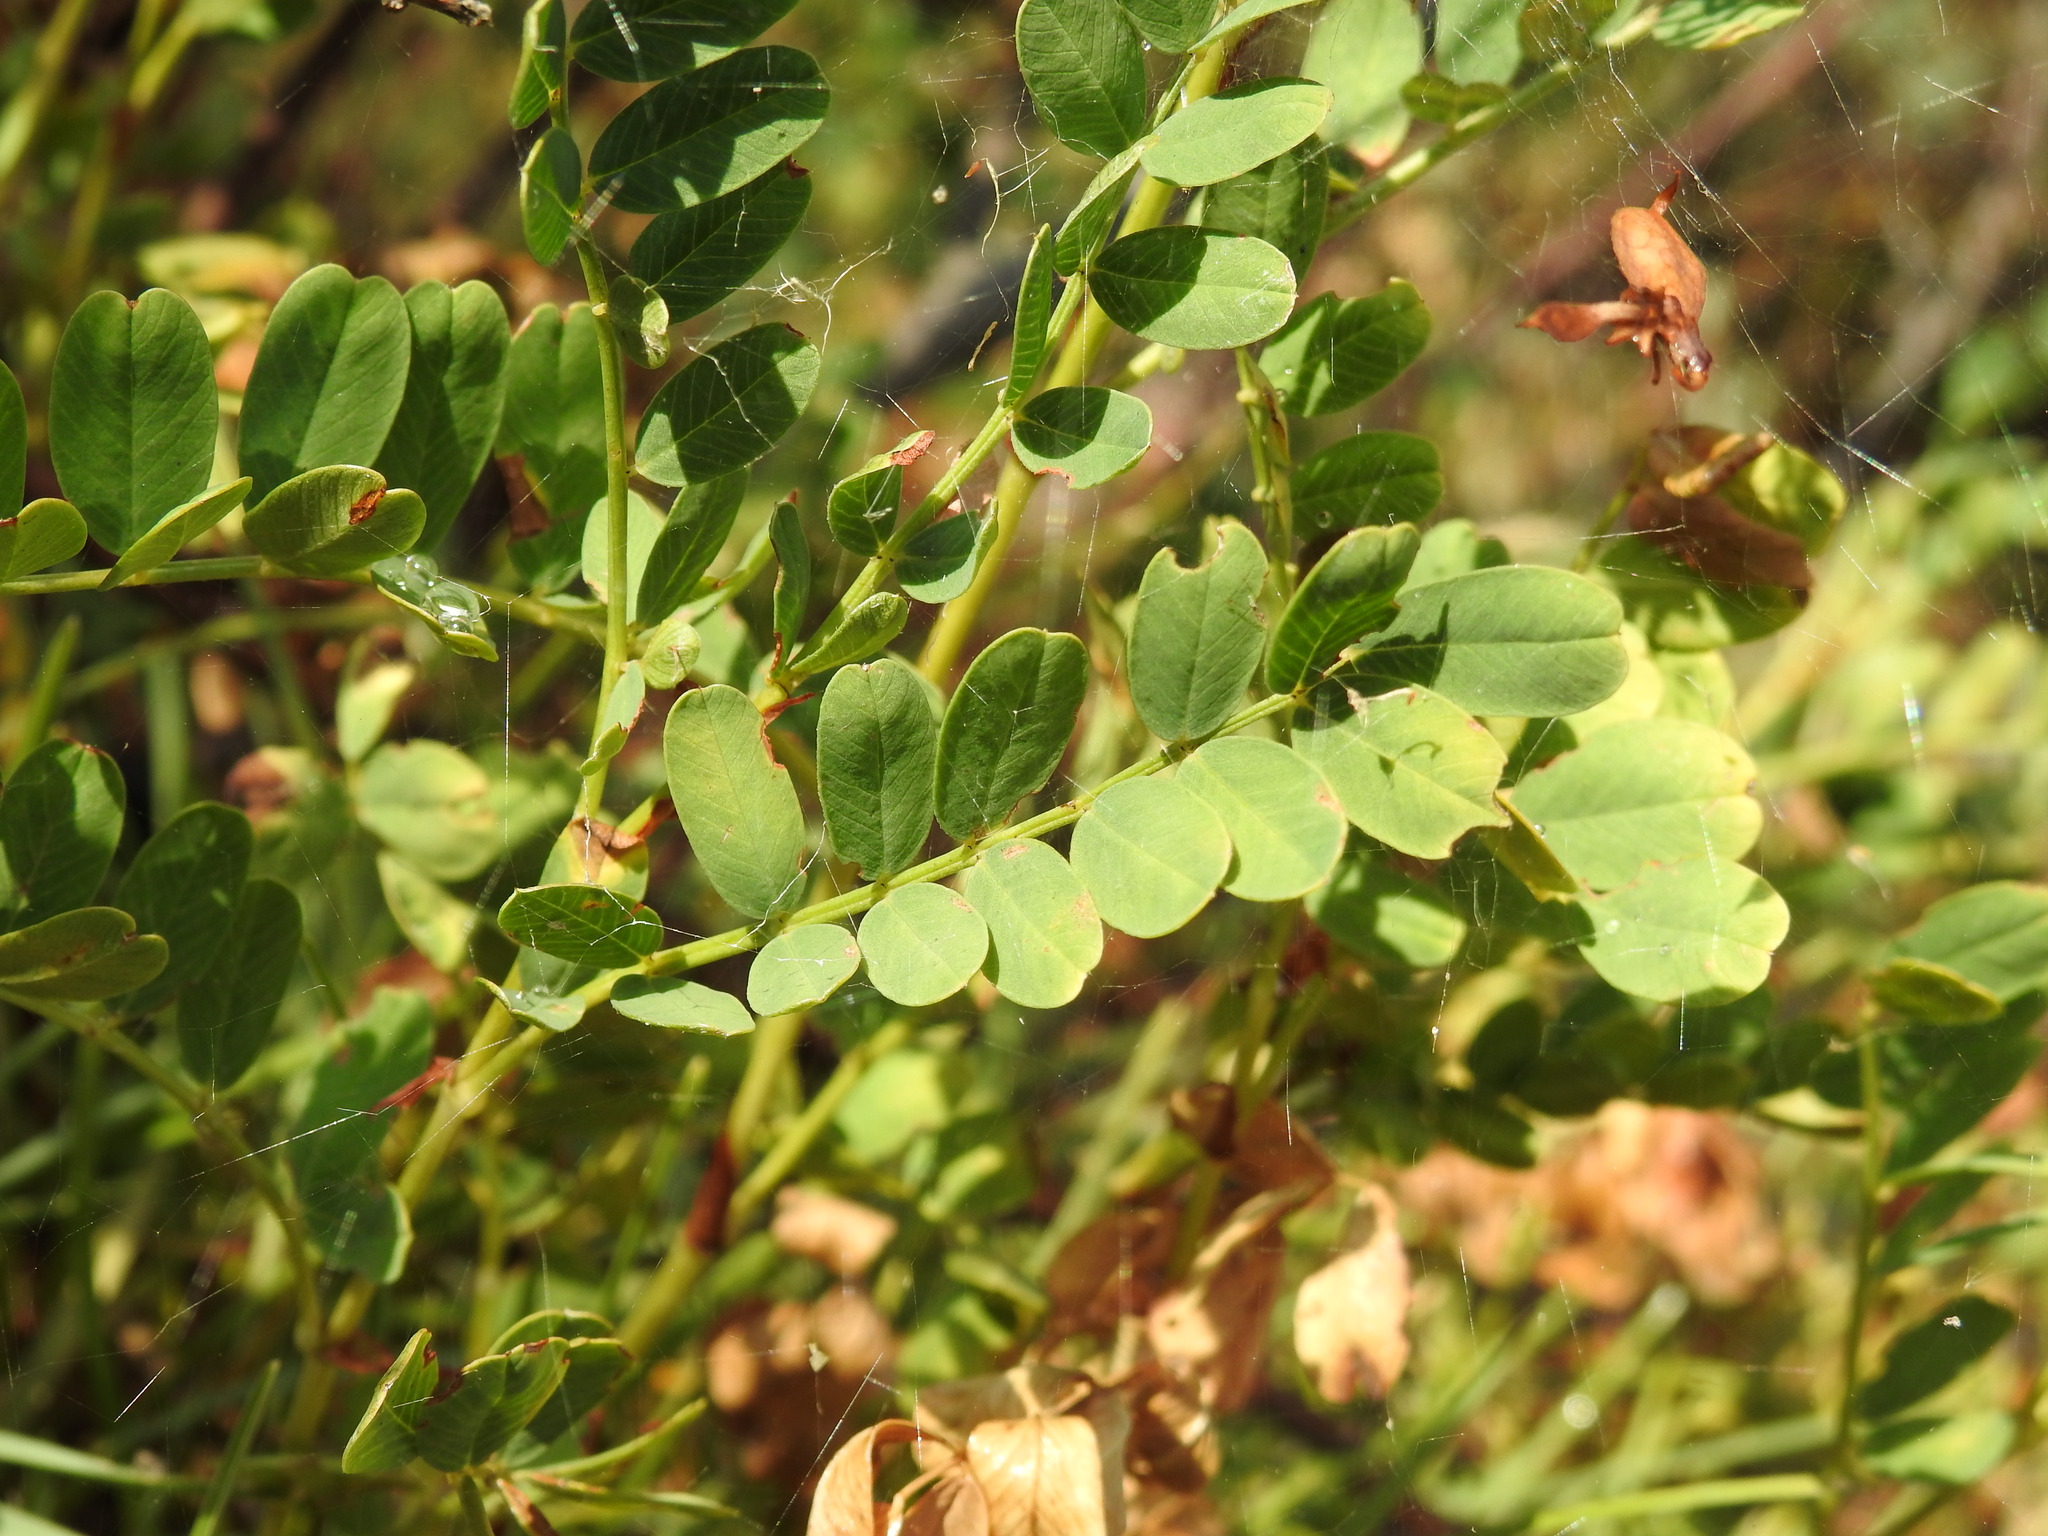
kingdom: Plantae
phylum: Tracheophyta
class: Magnoliopsida
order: Fabales
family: Fabaceae
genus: Hedysarum
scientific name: Hedysarum hedysaroides
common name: Alpine french-honeysuckle
